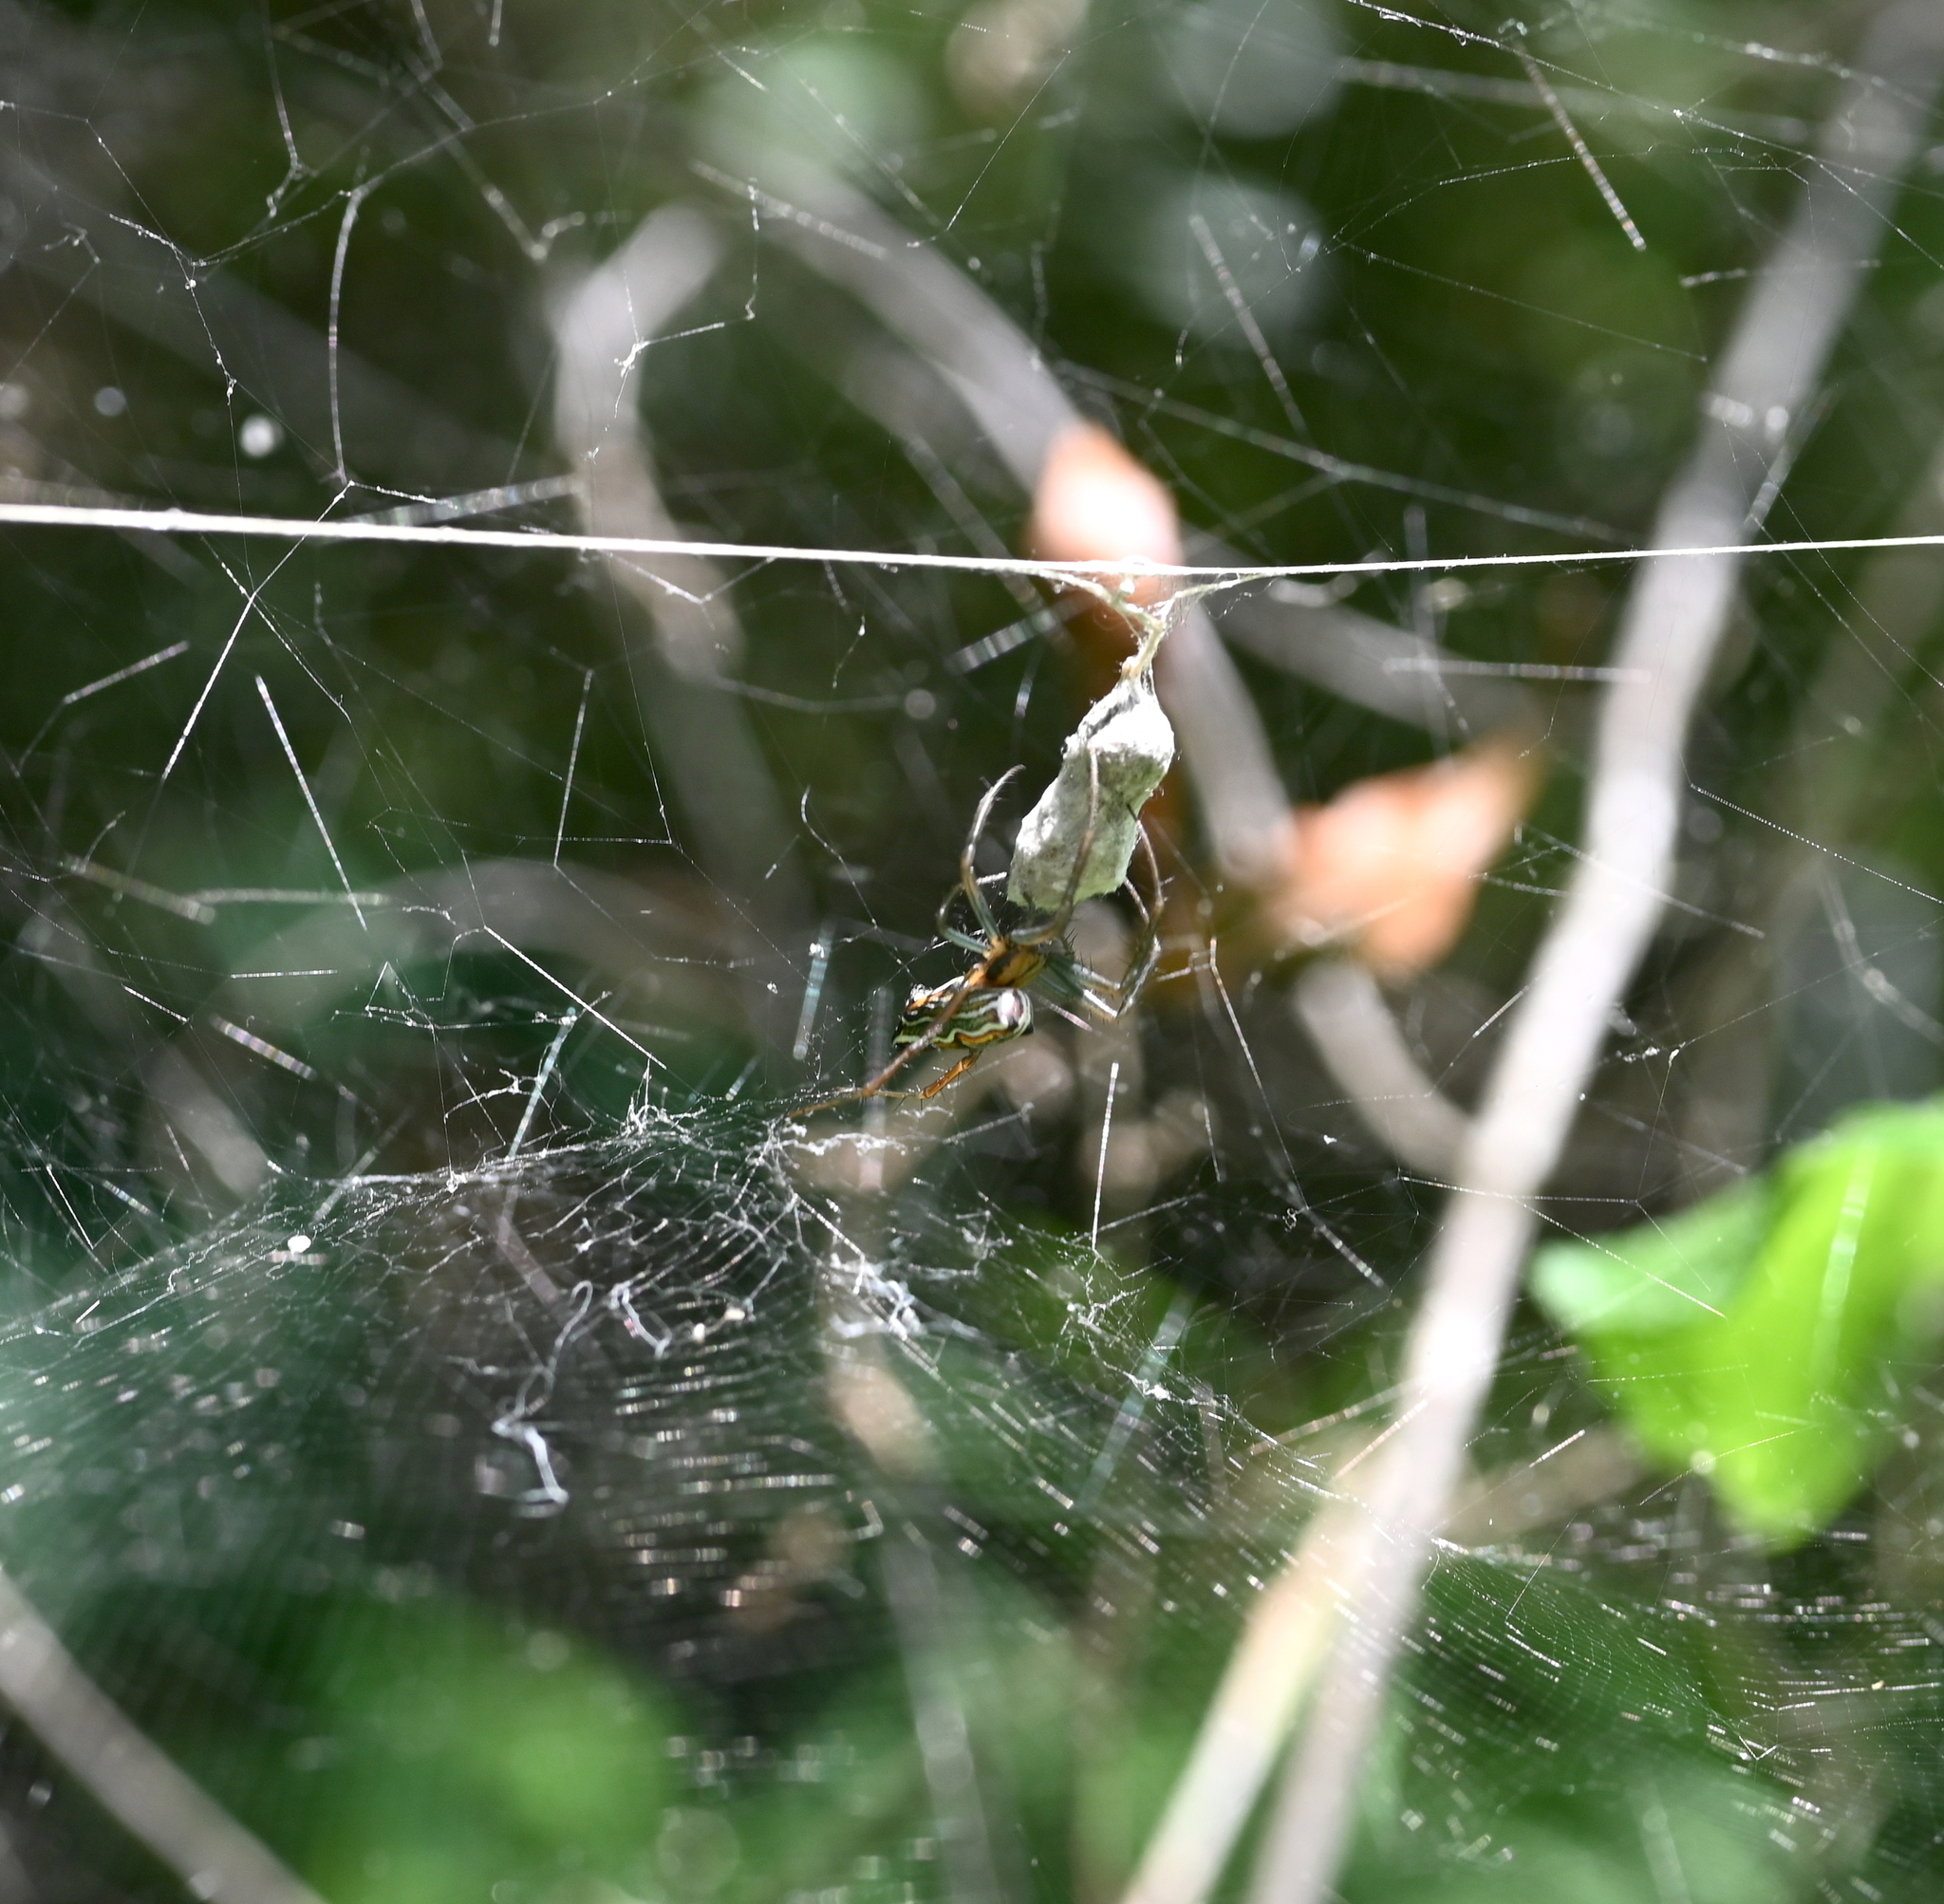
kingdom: Animalia
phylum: Arthropoda
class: Arachnida
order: Araneae
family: Araneidae
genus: Mecynogea
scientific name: Mecynogea lemniscata
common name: Orb weavers
